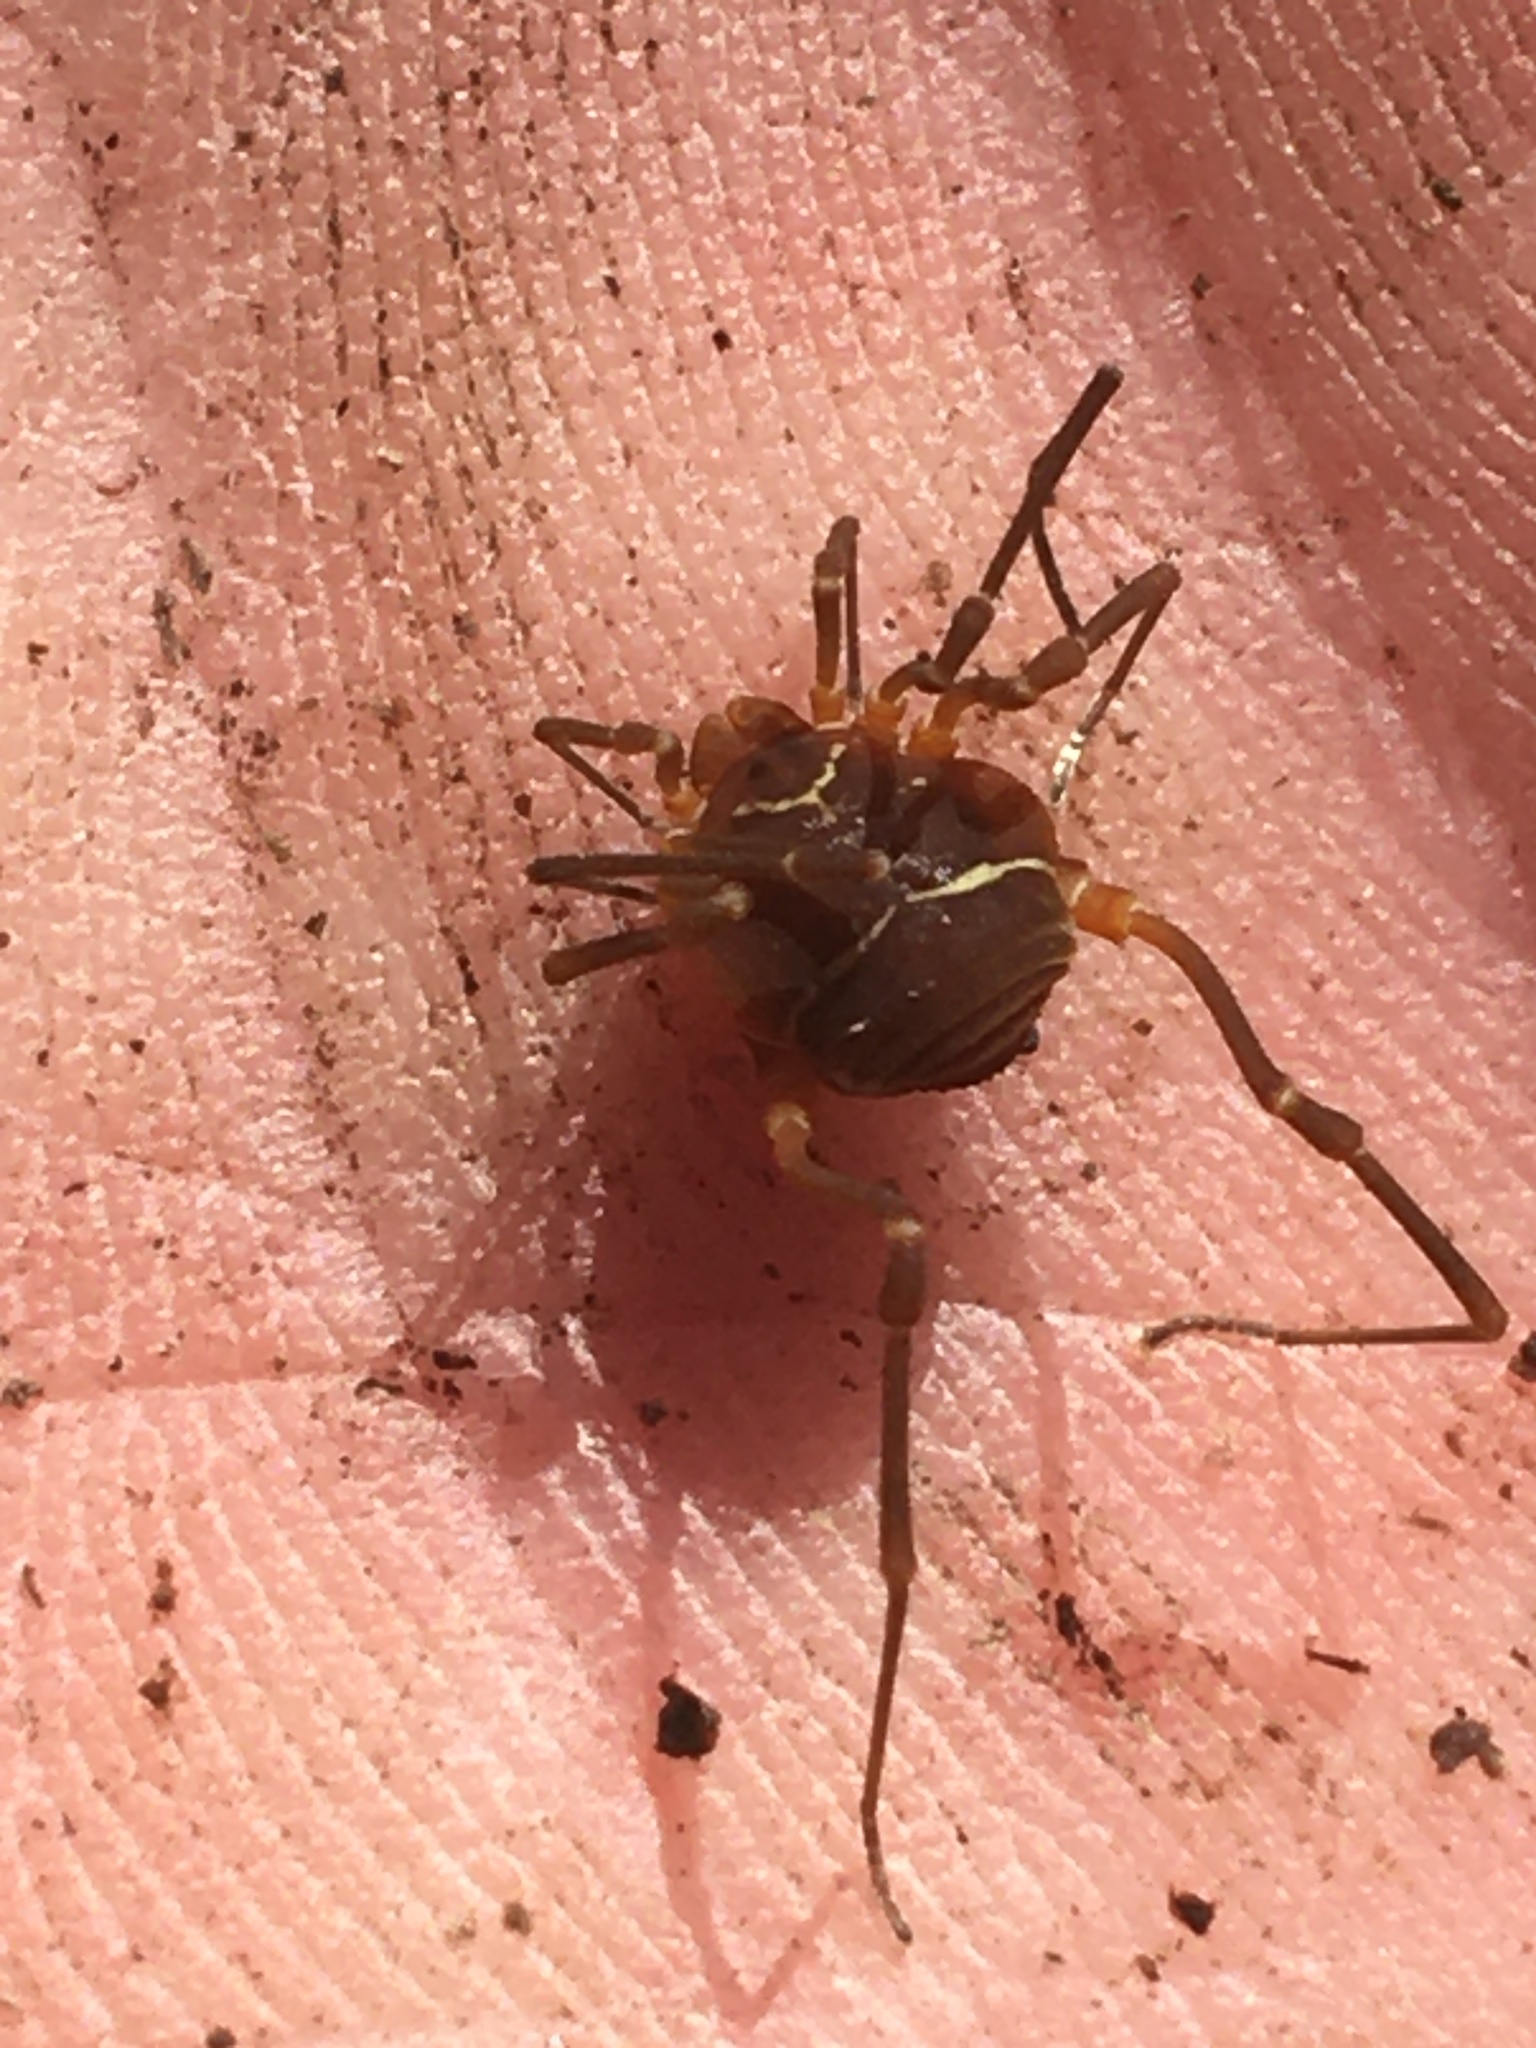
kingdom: Animalia
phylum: Arthropoda
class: Arachnida
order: Opiliones
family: Cosmetidae
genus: Libitioides
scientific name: Libitioides sayi
